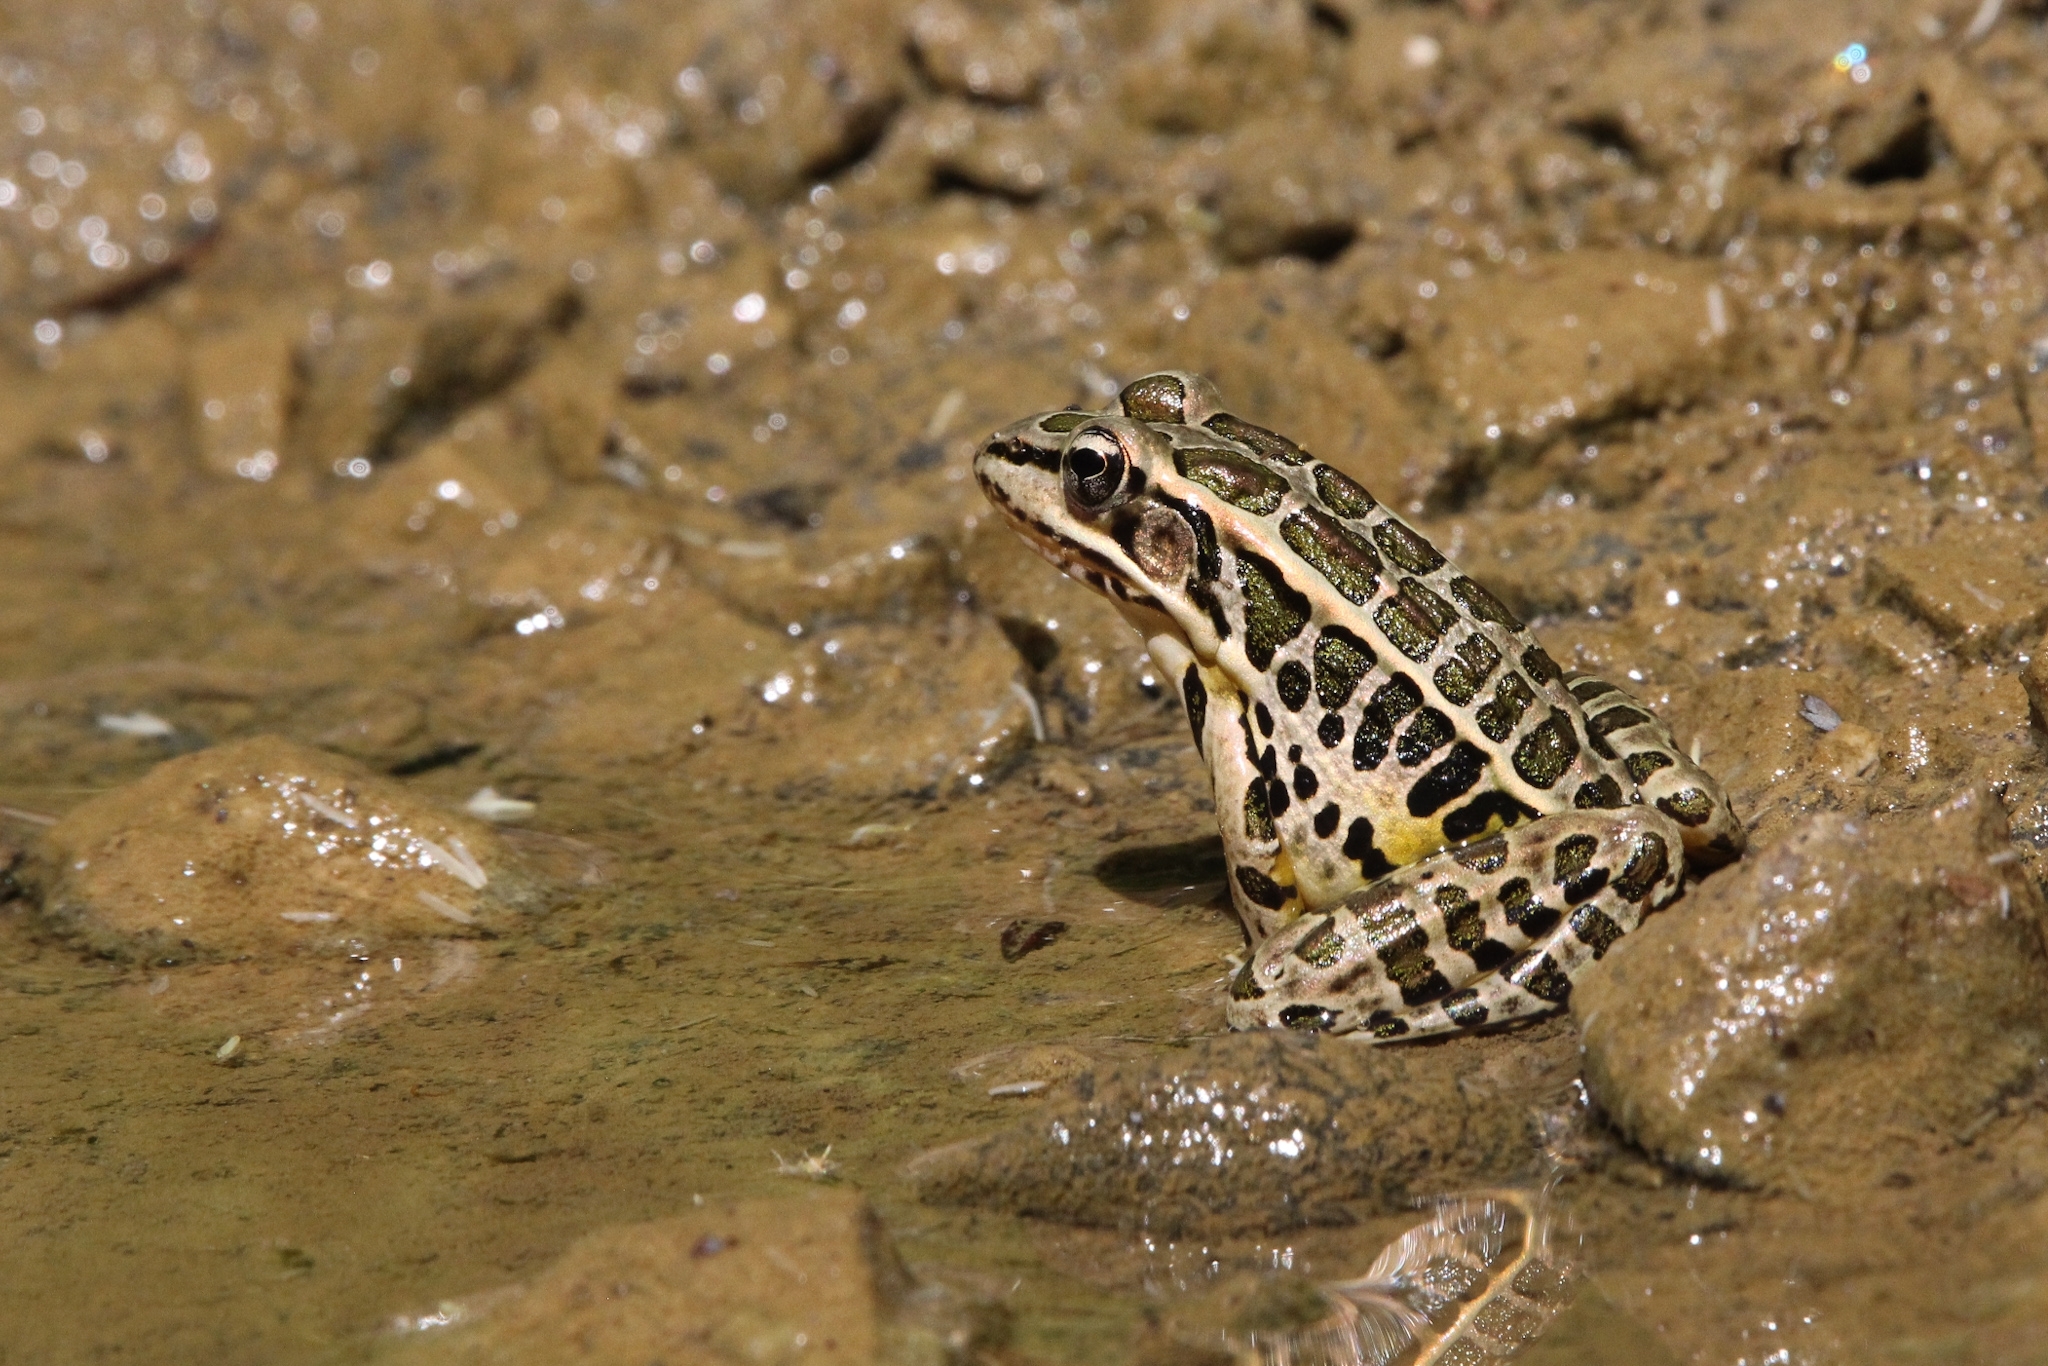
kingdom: Animalia
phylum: Chordata
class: Amphibia
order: Anura
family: Ranidae
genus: Lithobates
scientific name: Lithobates palustris
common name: Pickerel frog
